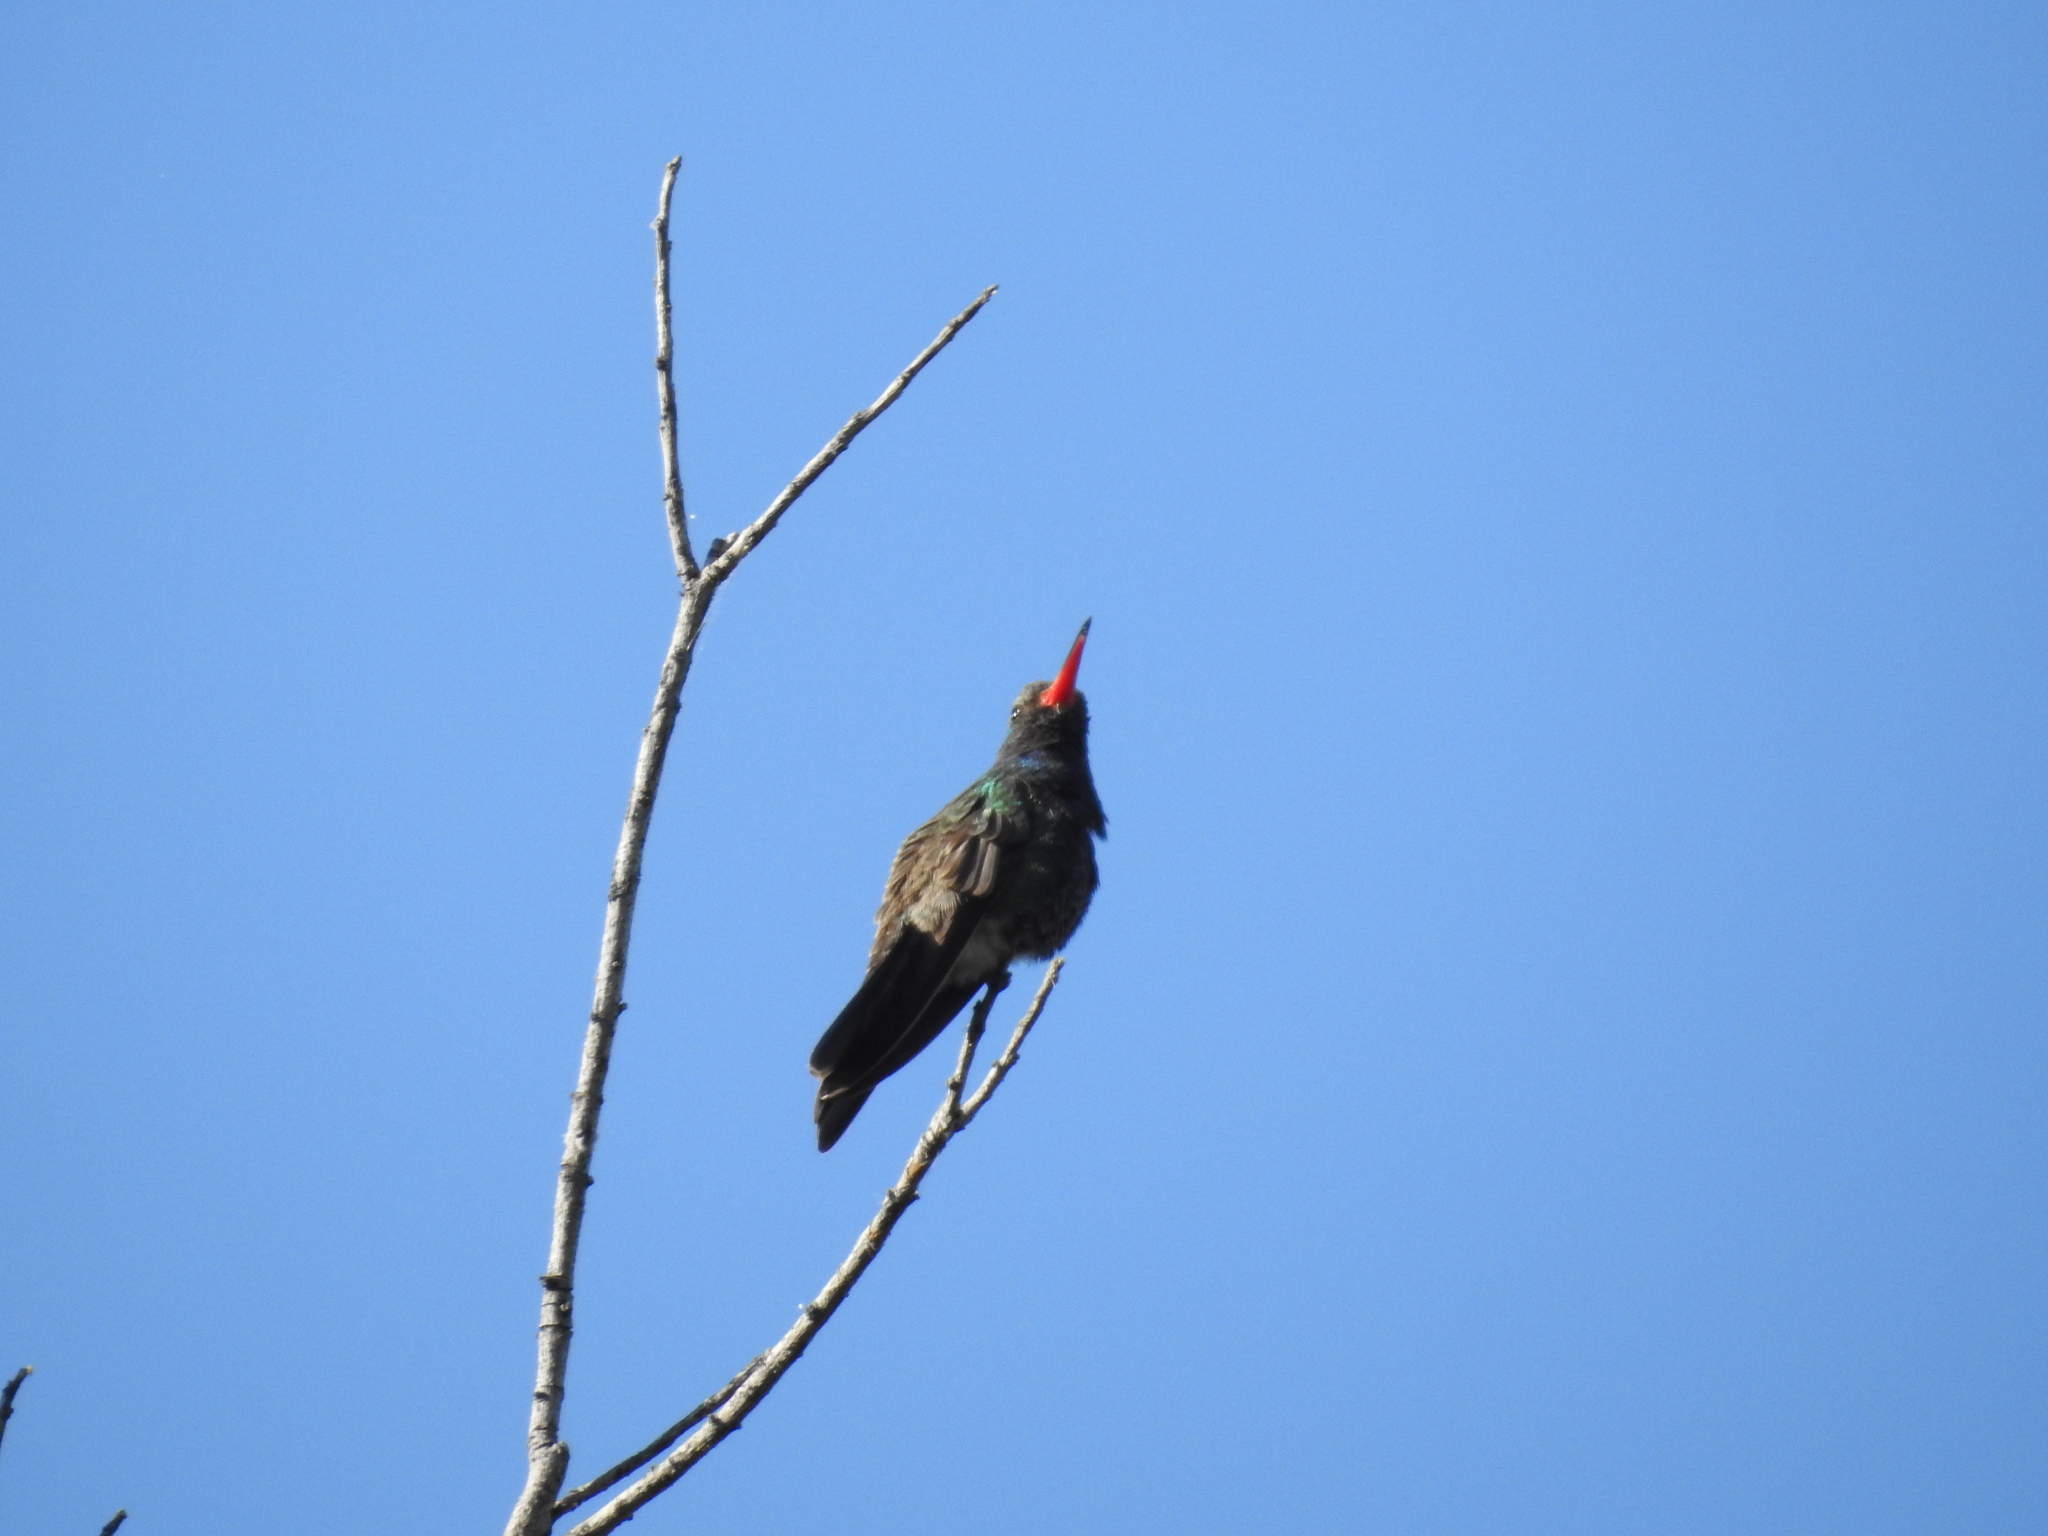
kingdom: Animalia
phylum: Chordata
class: Aves
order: Apodiformes
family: Trochilidae
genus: Cynanthus
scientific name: Cynanthus latirostris
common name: Broad-billed hummingbird
